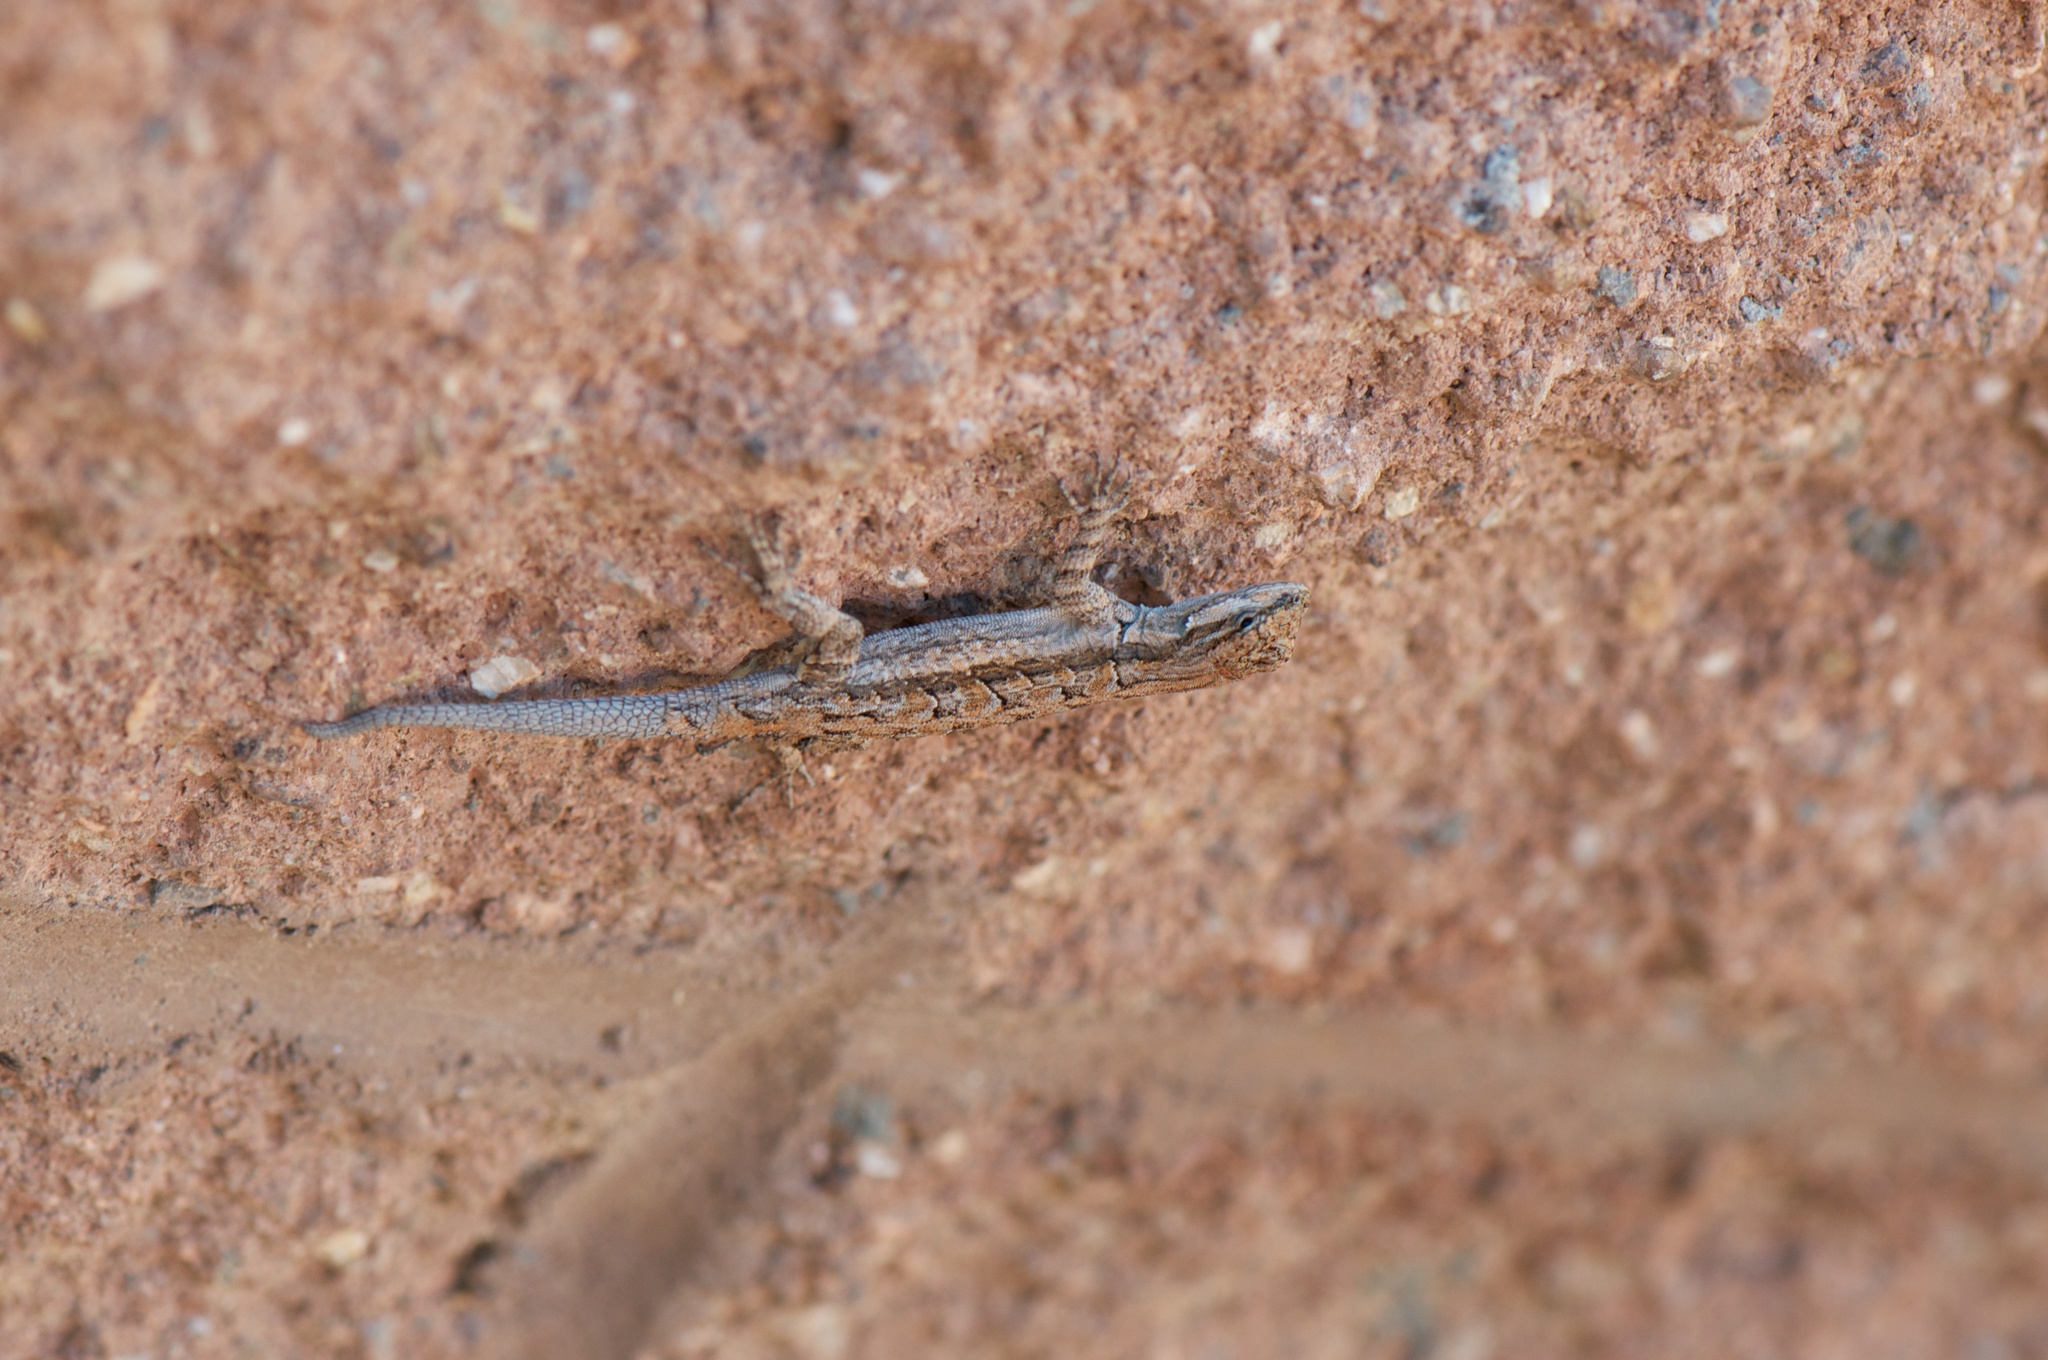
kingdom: Animalia
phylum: Chordata
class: Squamata
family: Phrynosomatidae
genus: Urosaurus
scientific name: Urosaurus ornatus
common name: Ornate tree lizard
